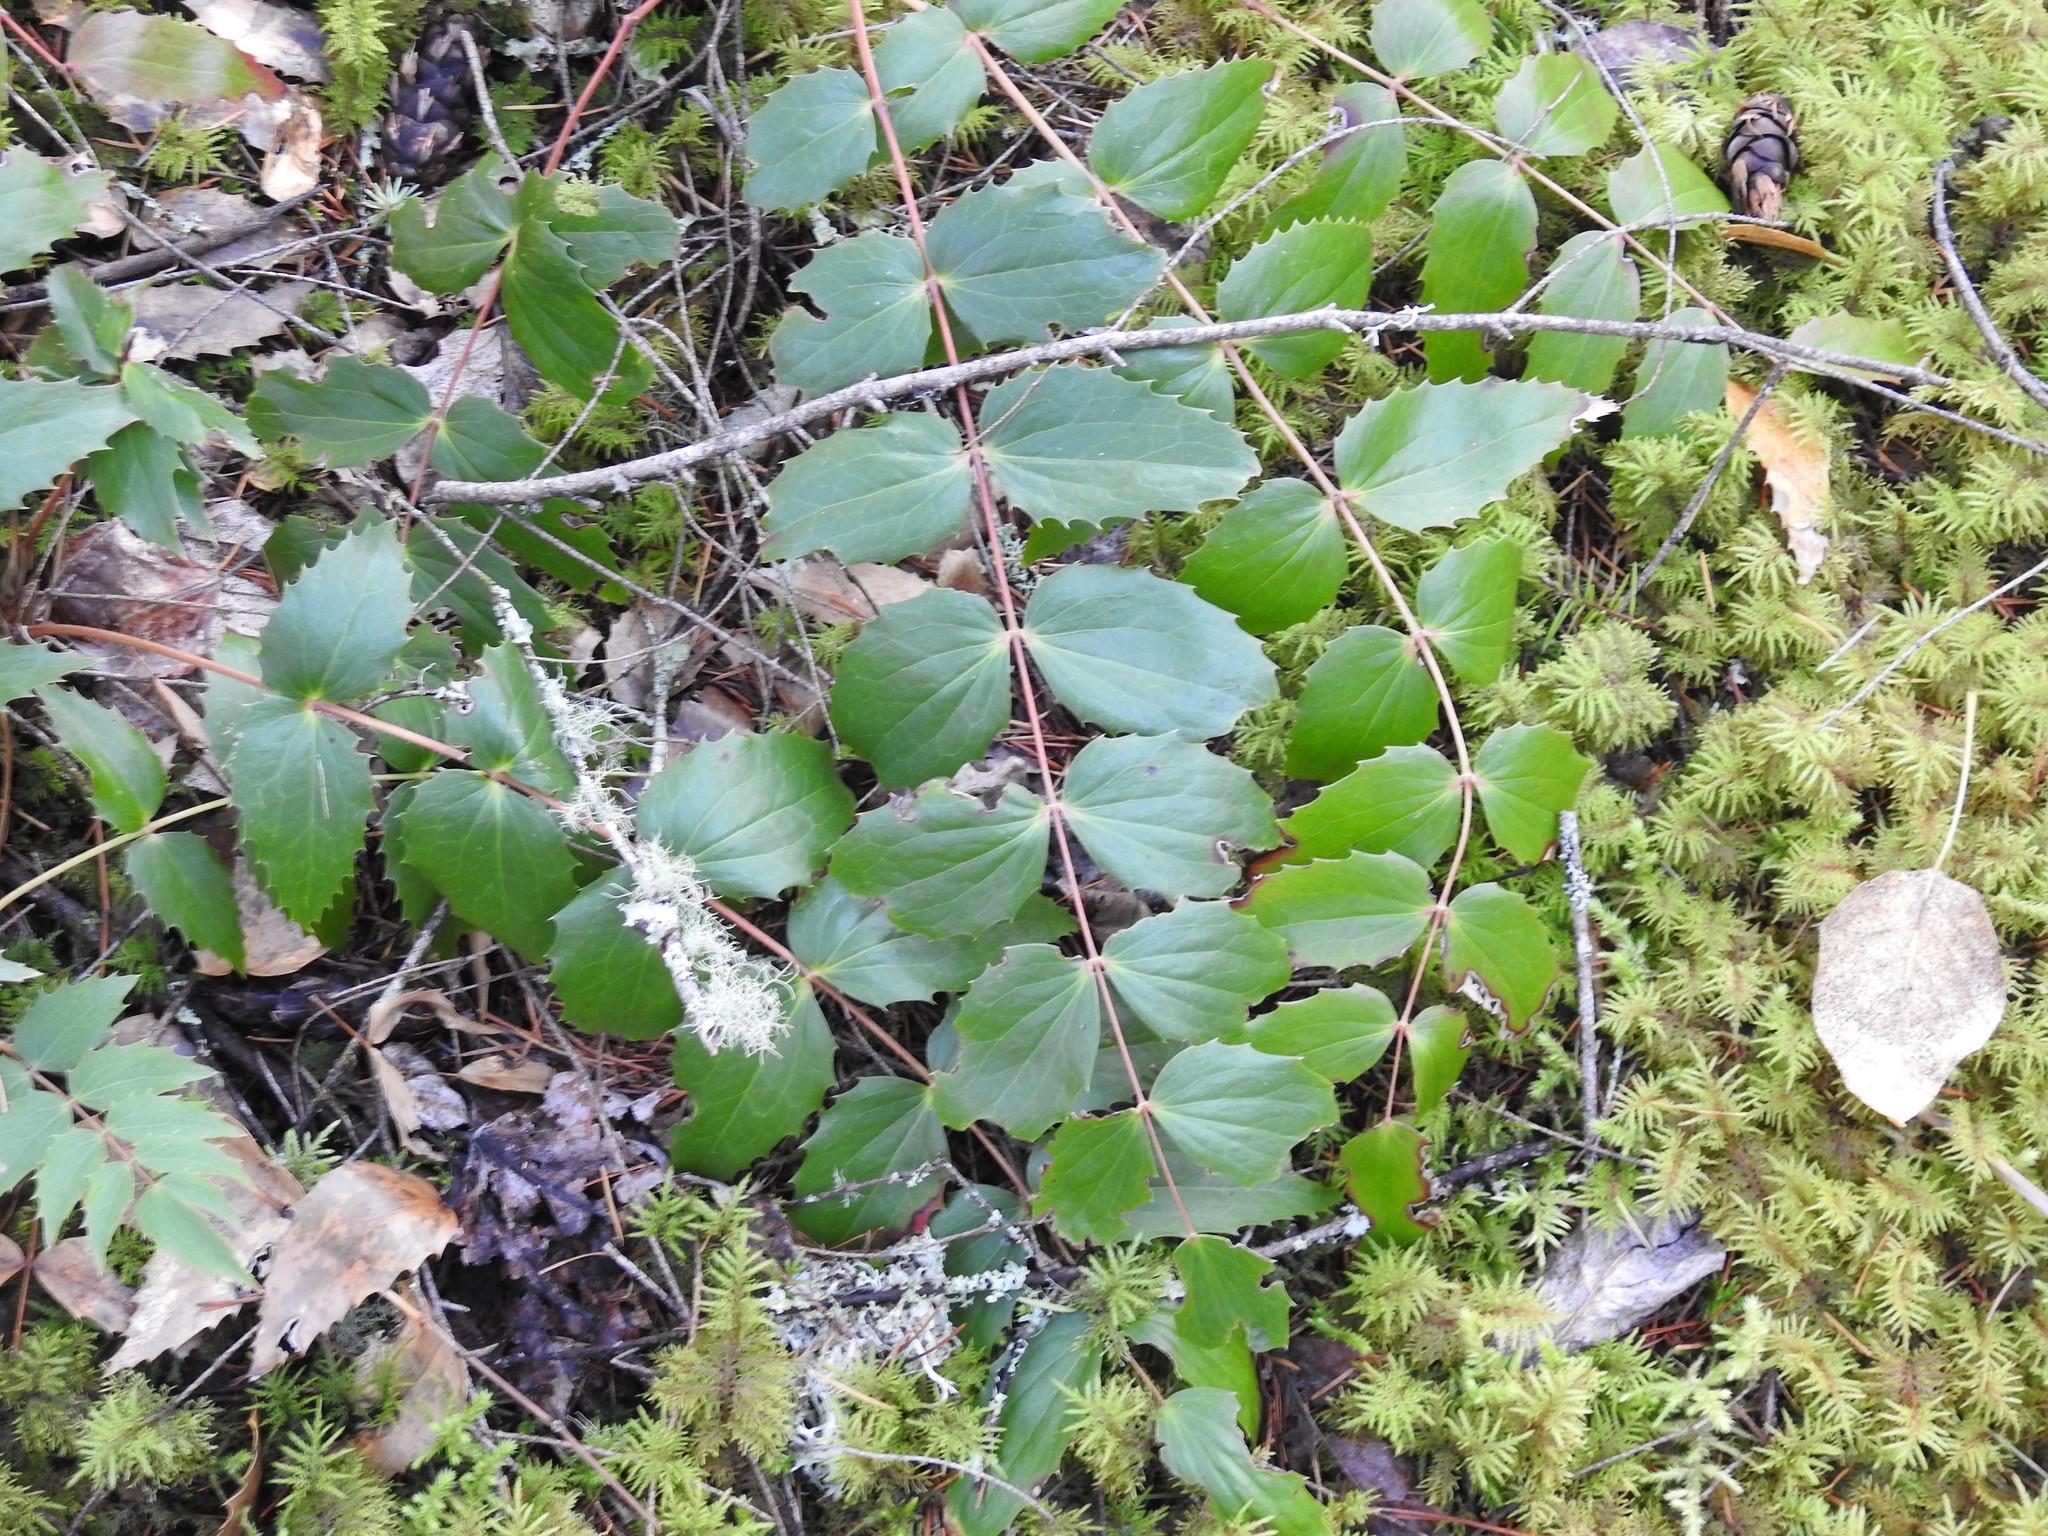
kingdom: Plantae
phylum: Tracheophyta
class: Magnoliopsida
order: Ranunculales
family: Berberidaceae
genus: Mahonia
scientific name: Mahonia nervosa
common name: Cascade oregon-grape
